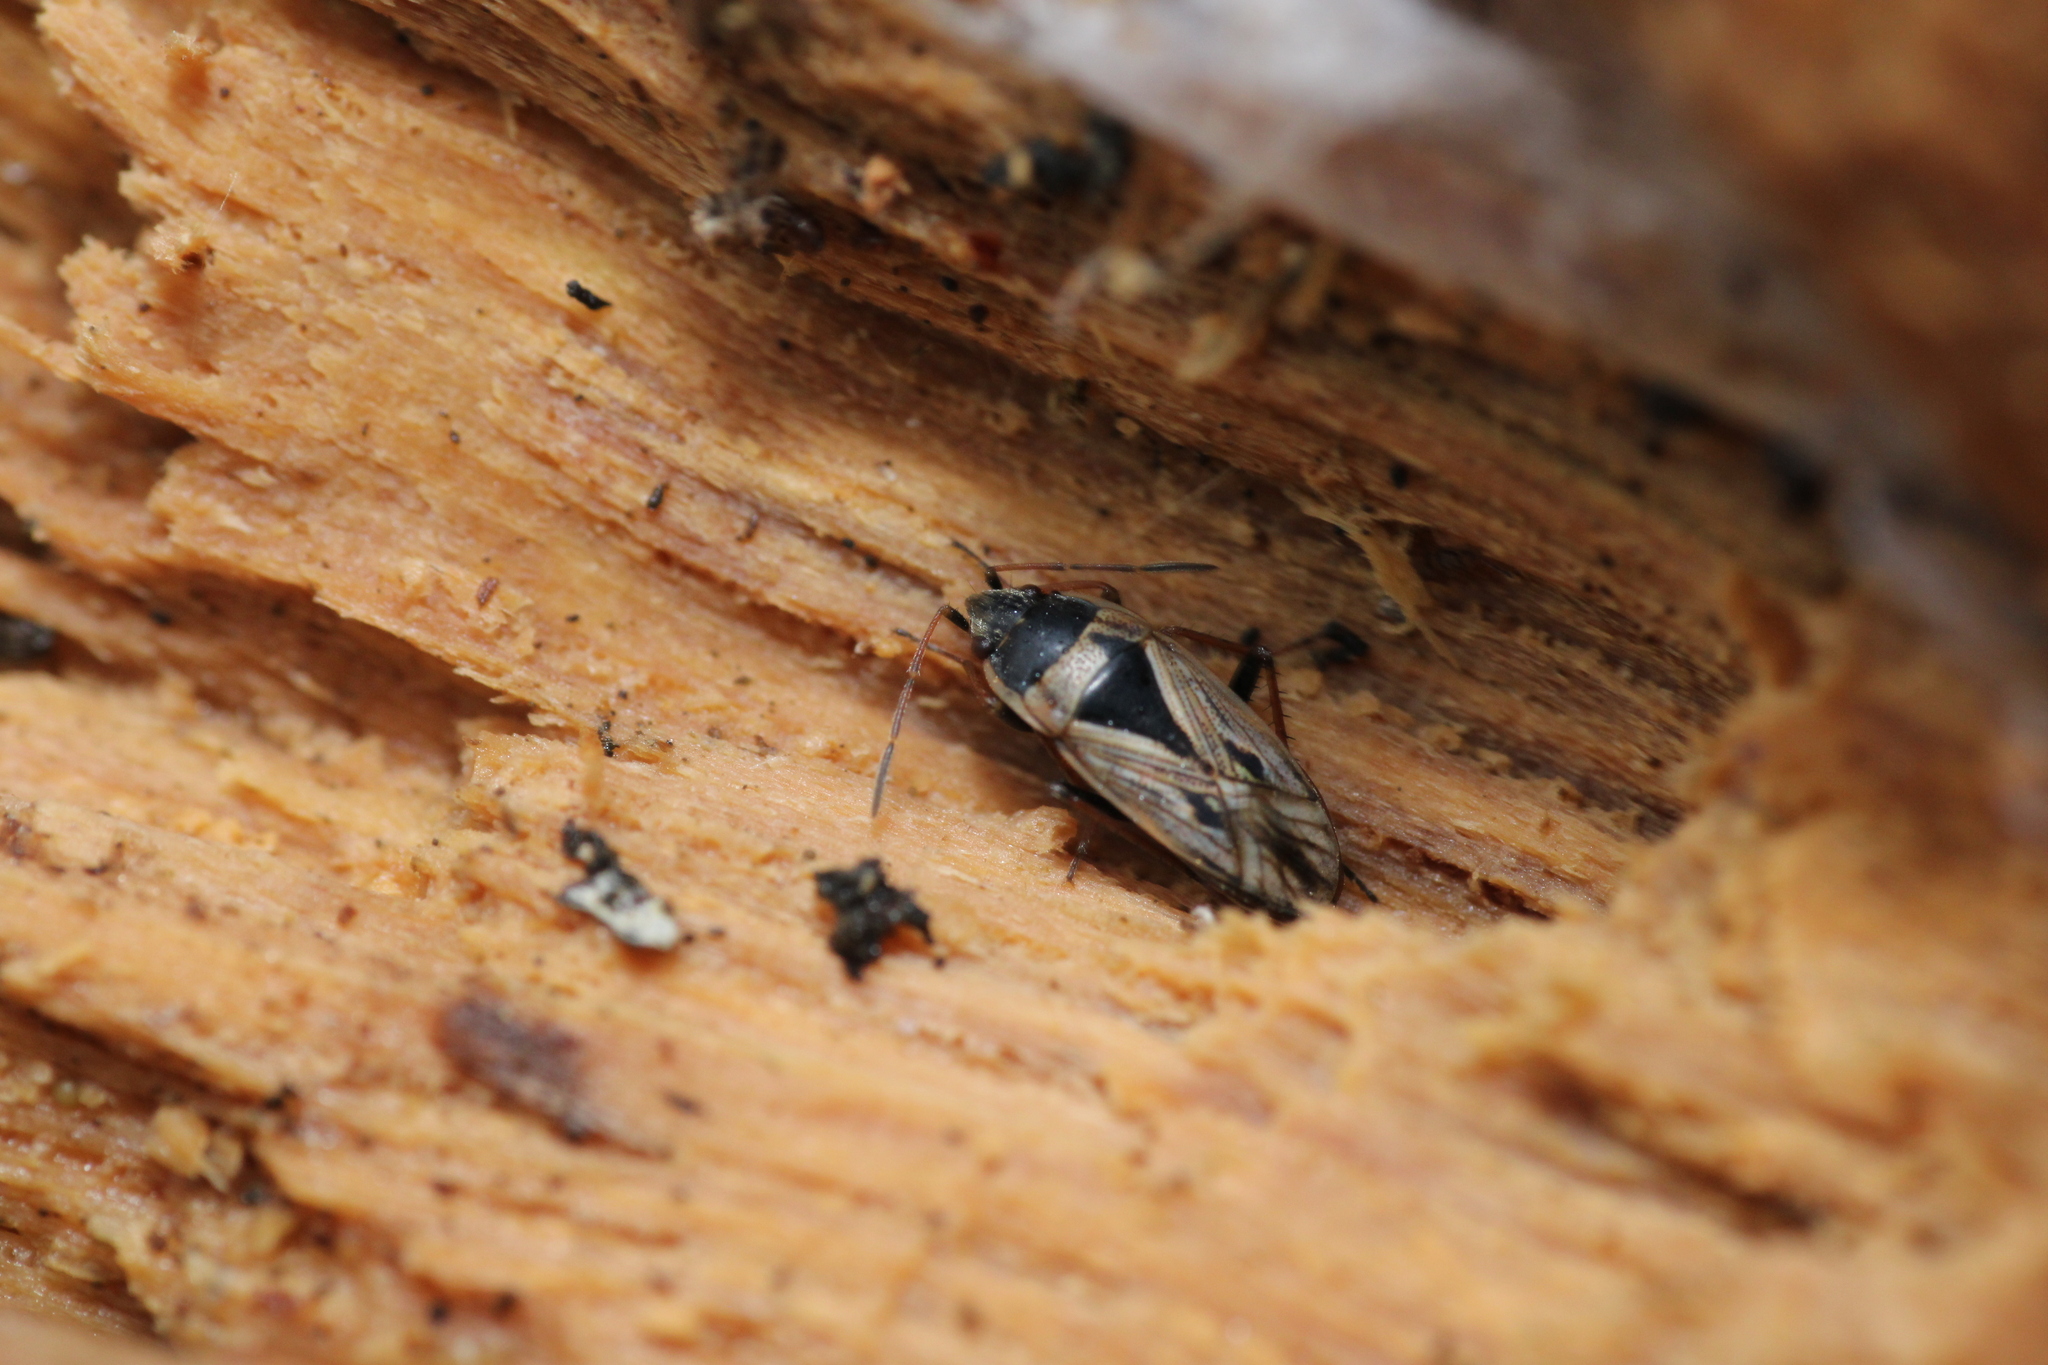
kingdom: Animalia
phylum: Arthropoda
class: Insecta
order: Hemiptera
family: Rhyparochromidae
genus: Xanthochilus
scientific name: Xanthochilus quadratus
